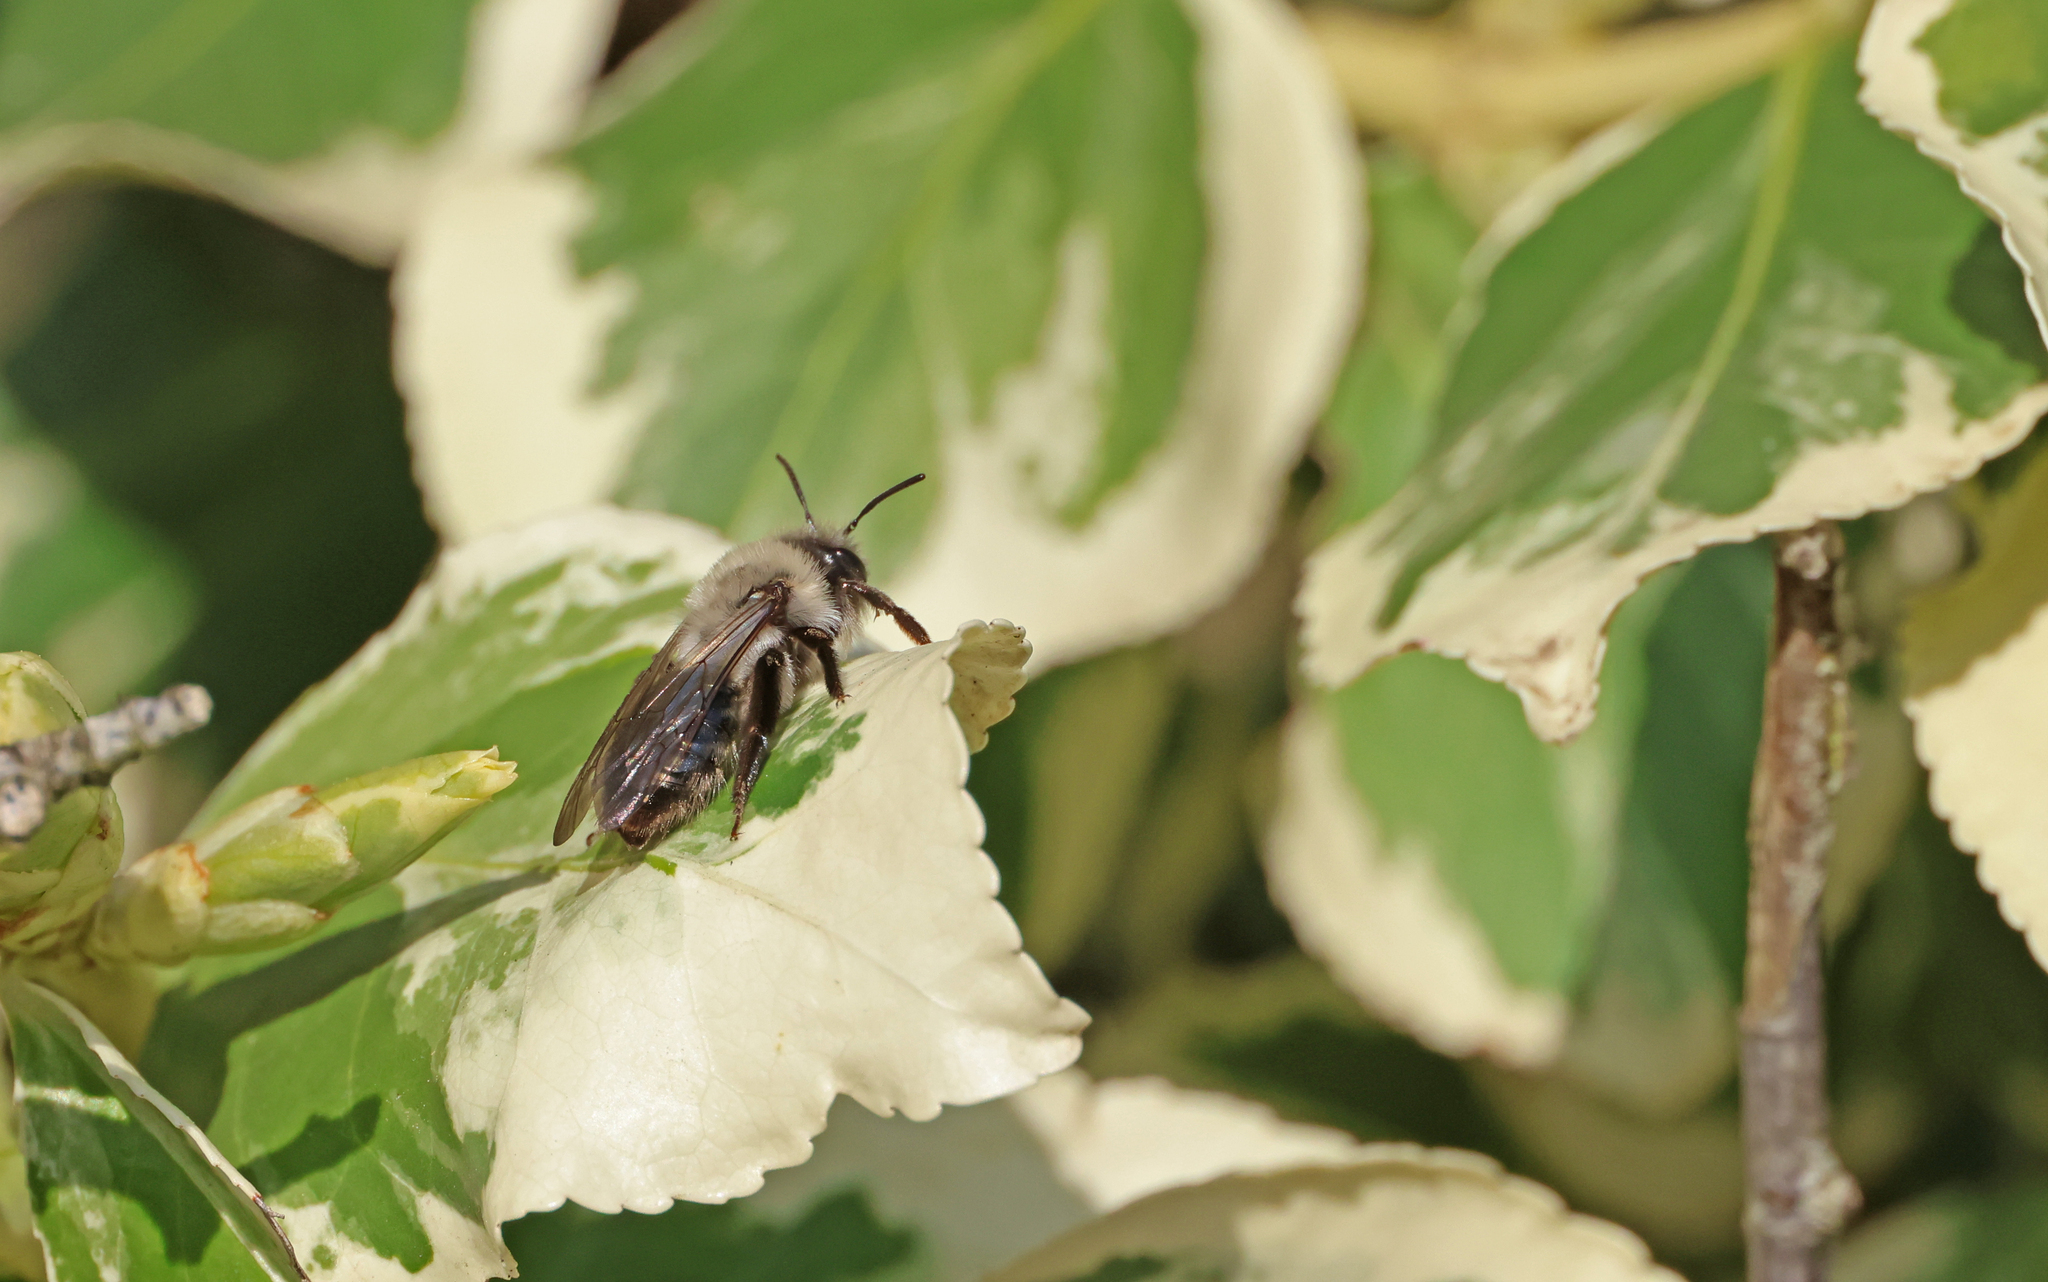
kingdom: Animalia
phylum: Arthropoda
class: Insecta
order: Hymenoptera
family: Andrenidae
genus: Andrena
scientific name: Andrena vaga
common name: Grey-backed mining bee
